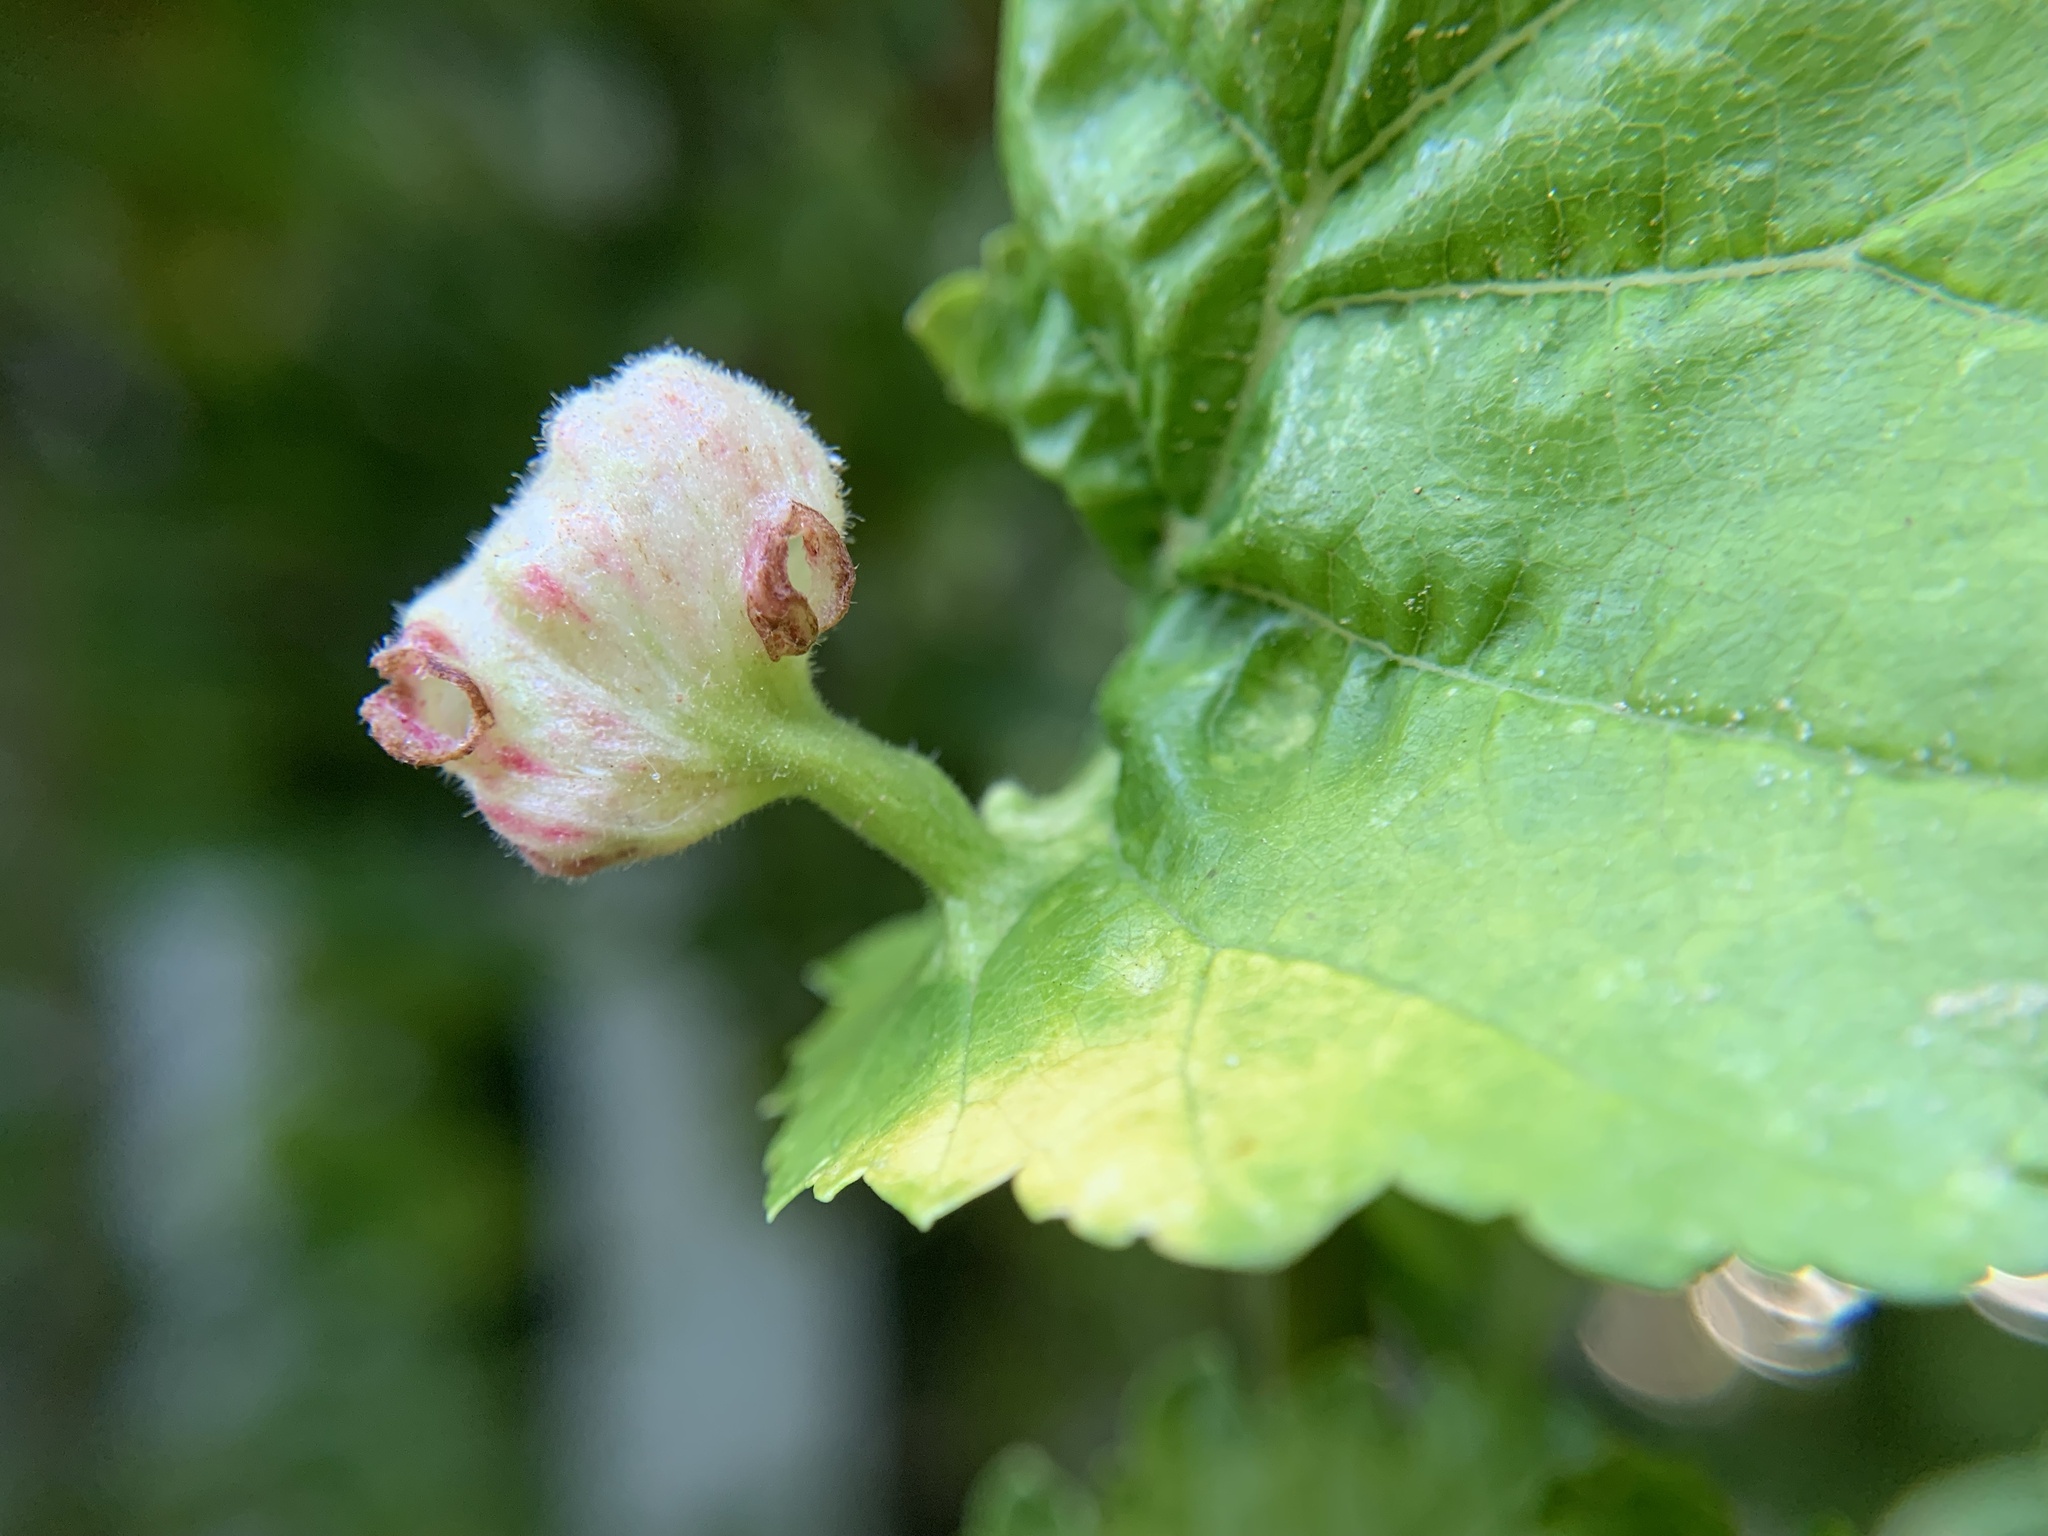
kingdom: Animalia
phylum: Arthropoda
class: Insecta
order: Hemiptera
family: Aphididae
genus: Tetraneura
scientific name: Tetraneura nigriabdominalis
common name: Aphid
